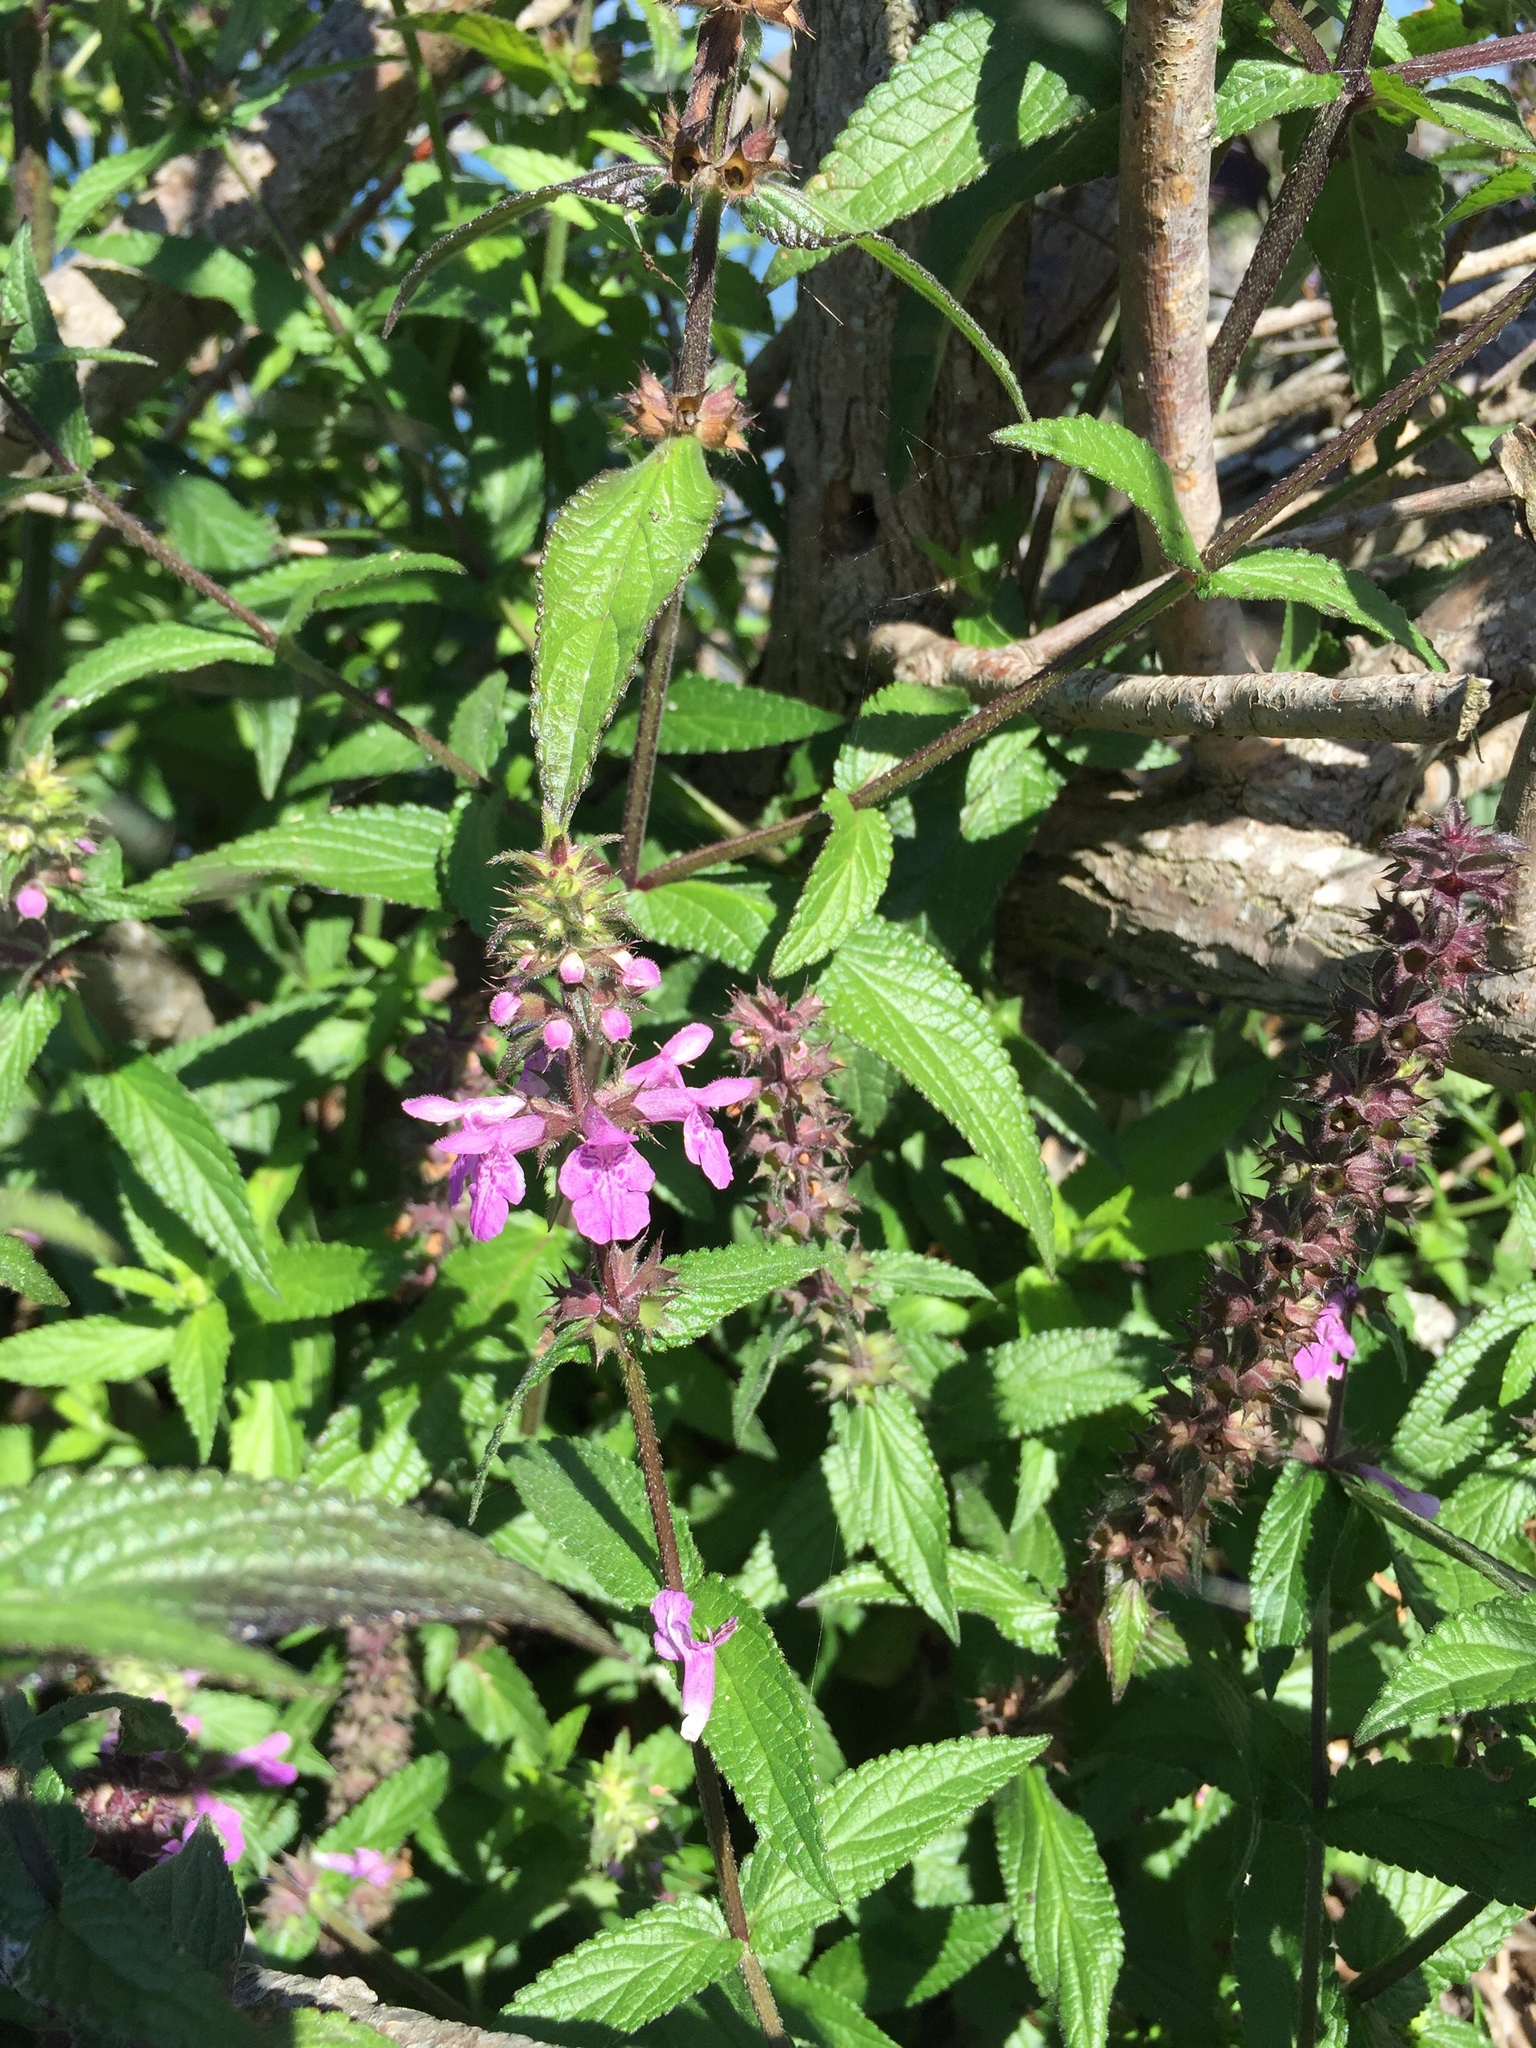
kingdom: Plantae
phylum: Tracheophyta
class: Magnoliopsida
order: Lamiales
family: Lamiaceae
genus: Stachys
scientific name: Stachys palustris
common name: Marsh woundwort
